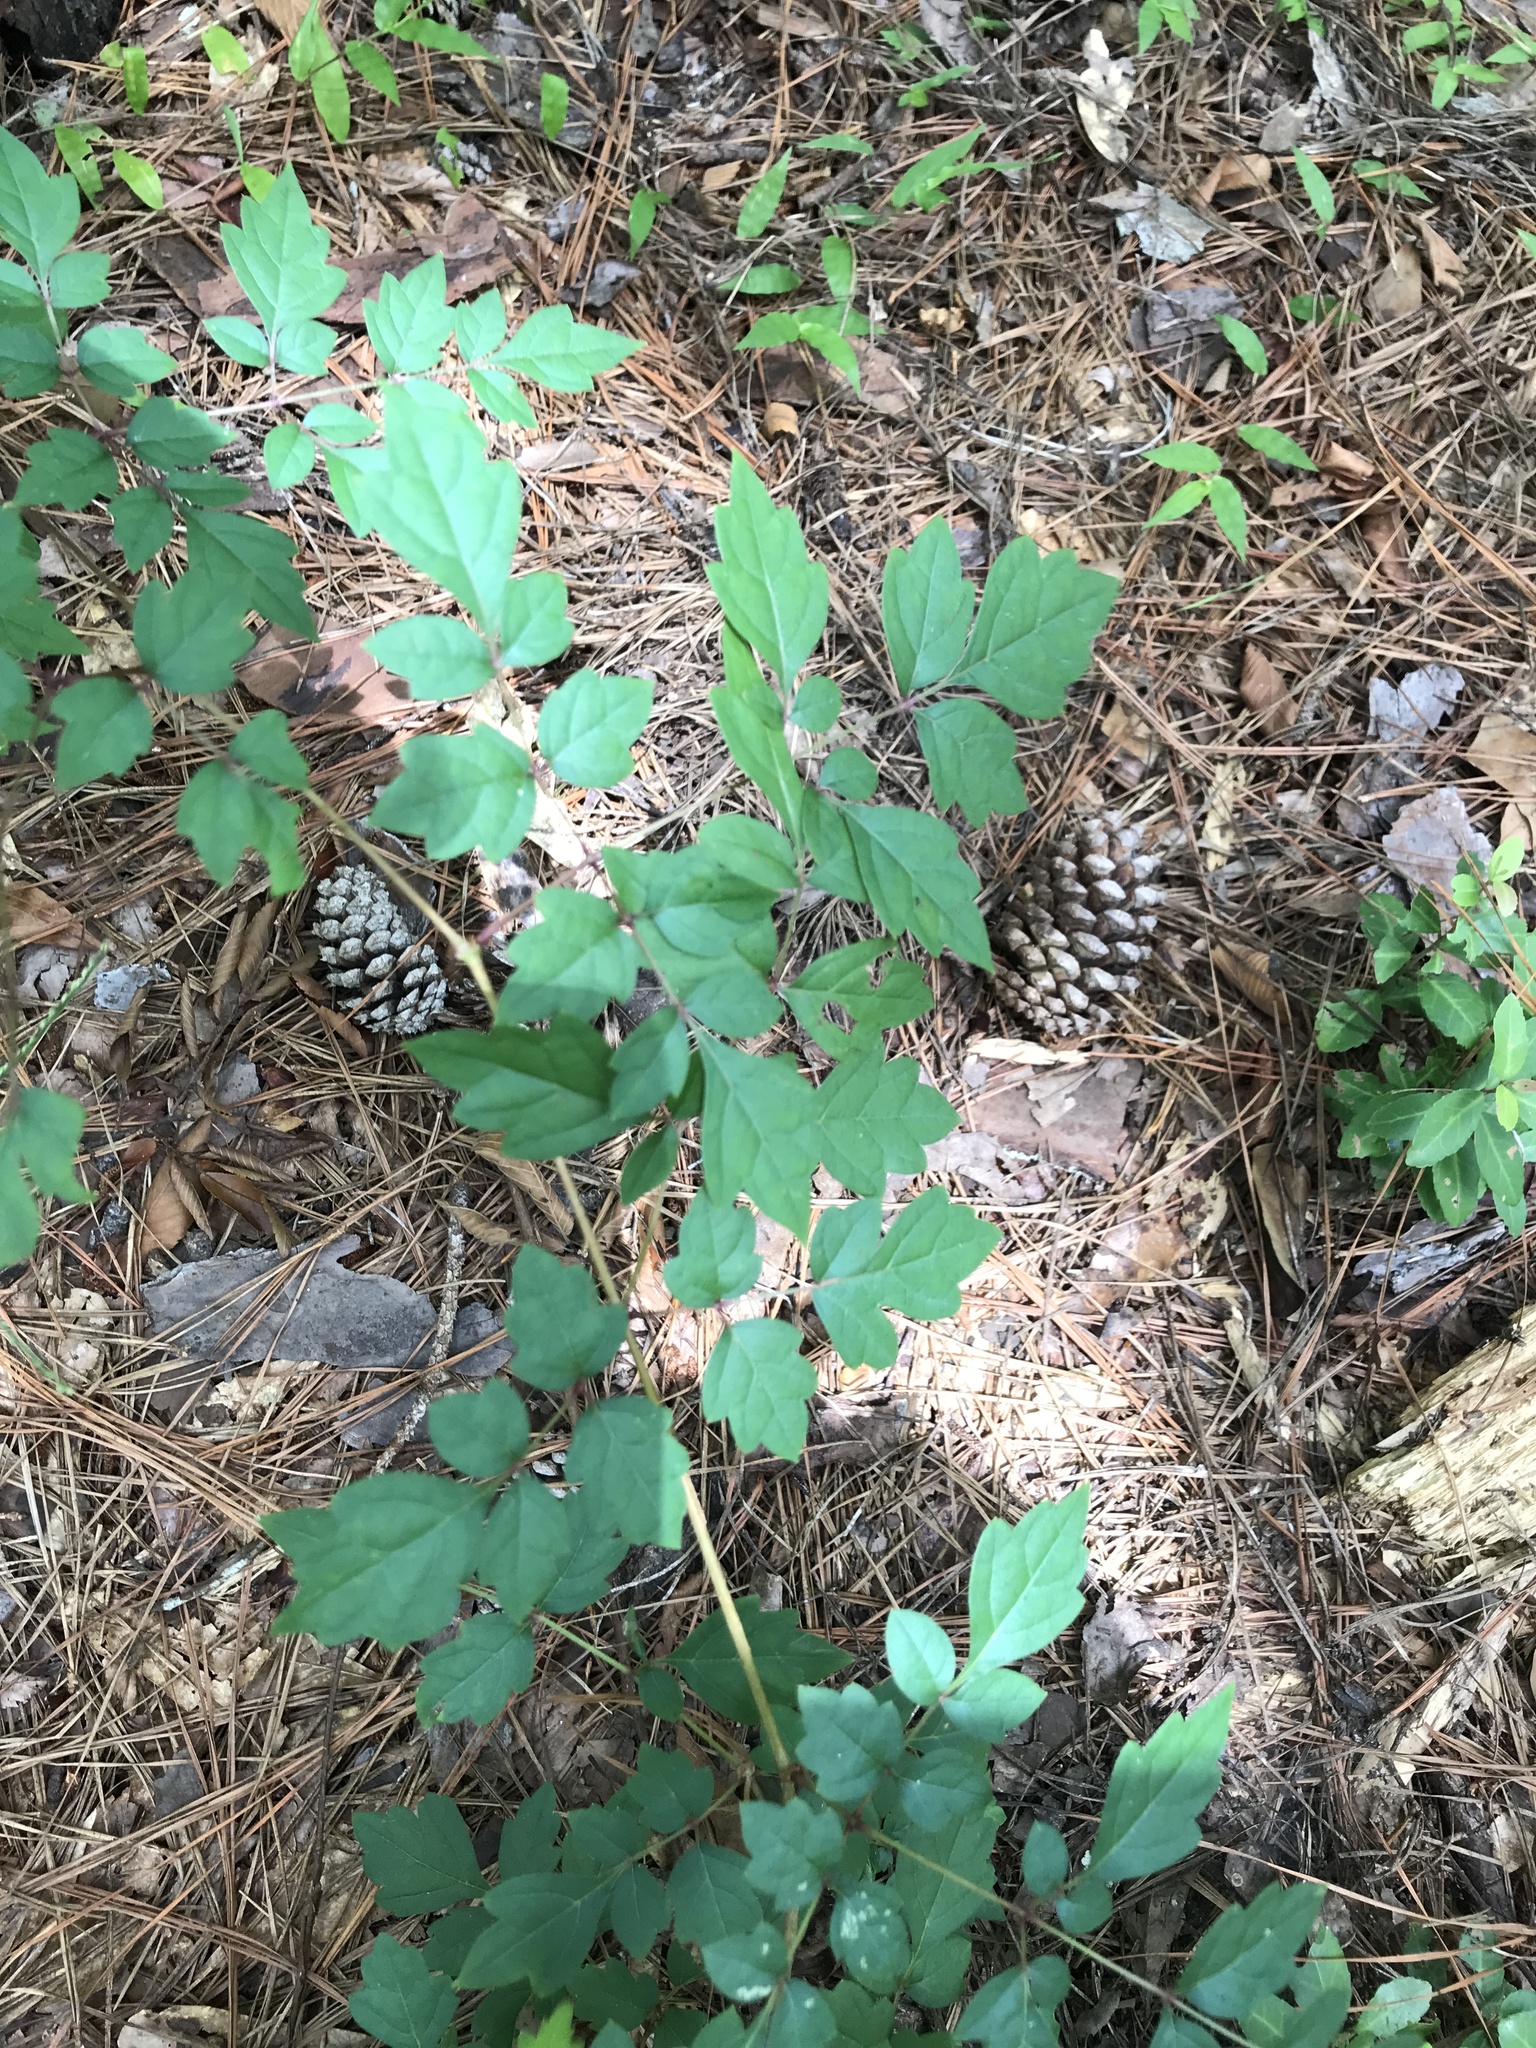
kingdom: Plantae
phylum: Tracheophyta
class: Magnoliopsida
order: Vitales
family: Vitaceae
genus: Nekemias
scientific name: Nekemias arborea
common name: Peppervine
